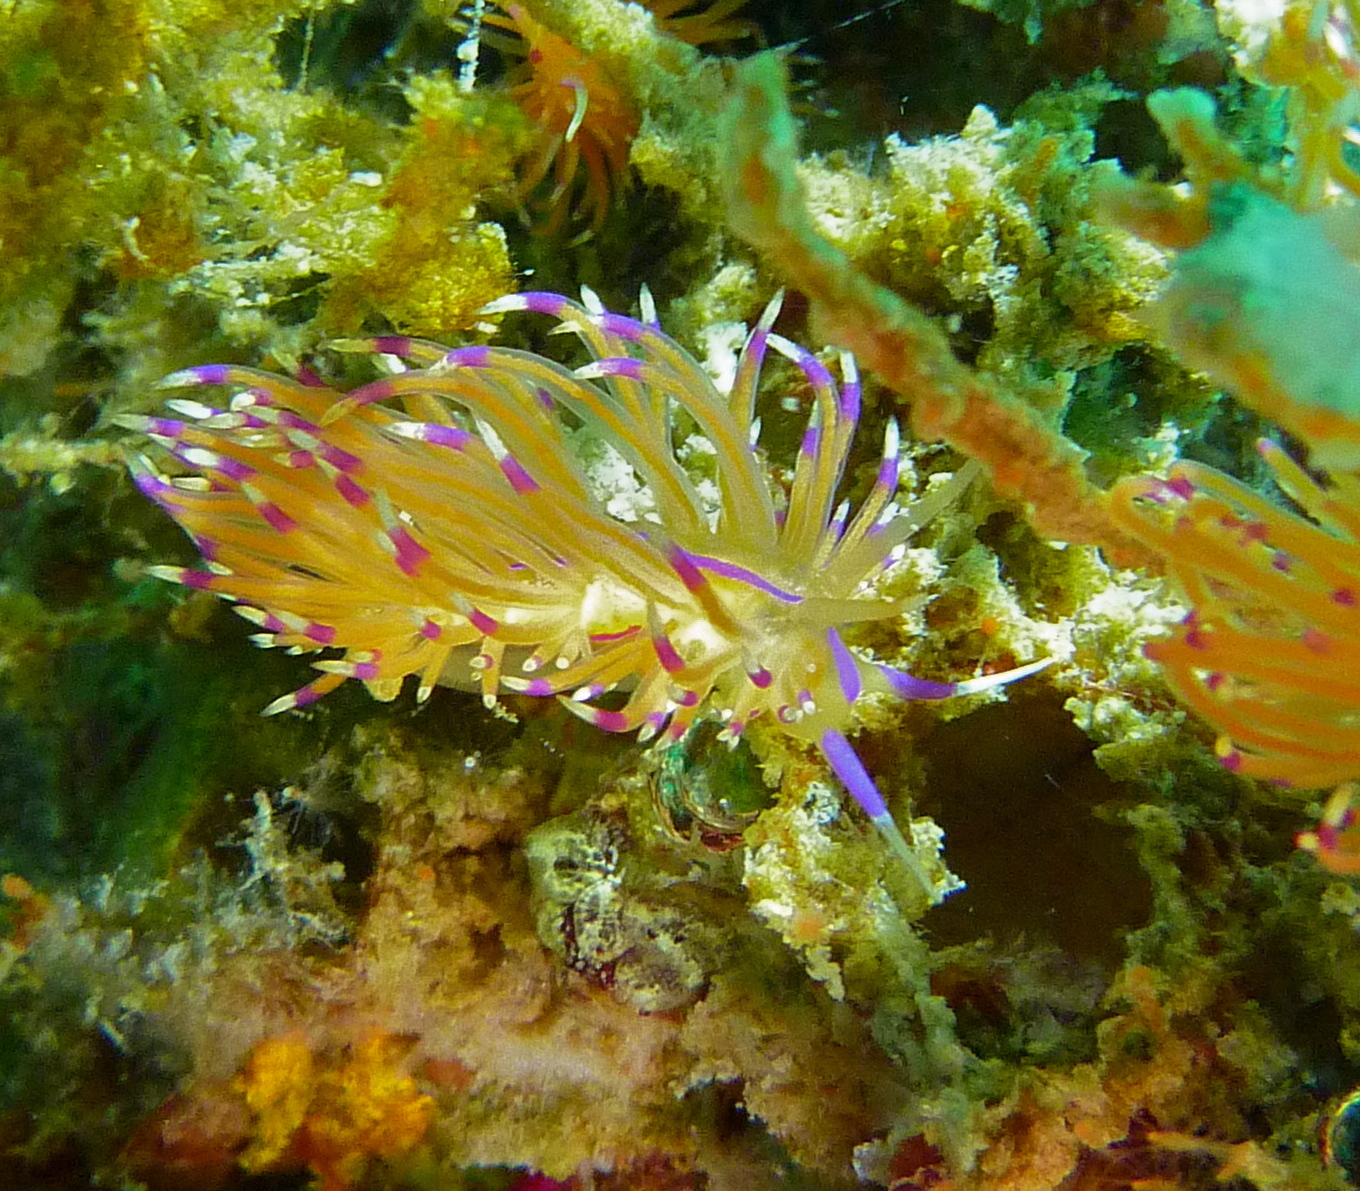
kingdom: Animalia
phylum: Mollusca
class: Gastropoda
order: Nudibranchia
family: Unidentiidae
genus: Unidentia
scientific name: Unidentia aliciae
